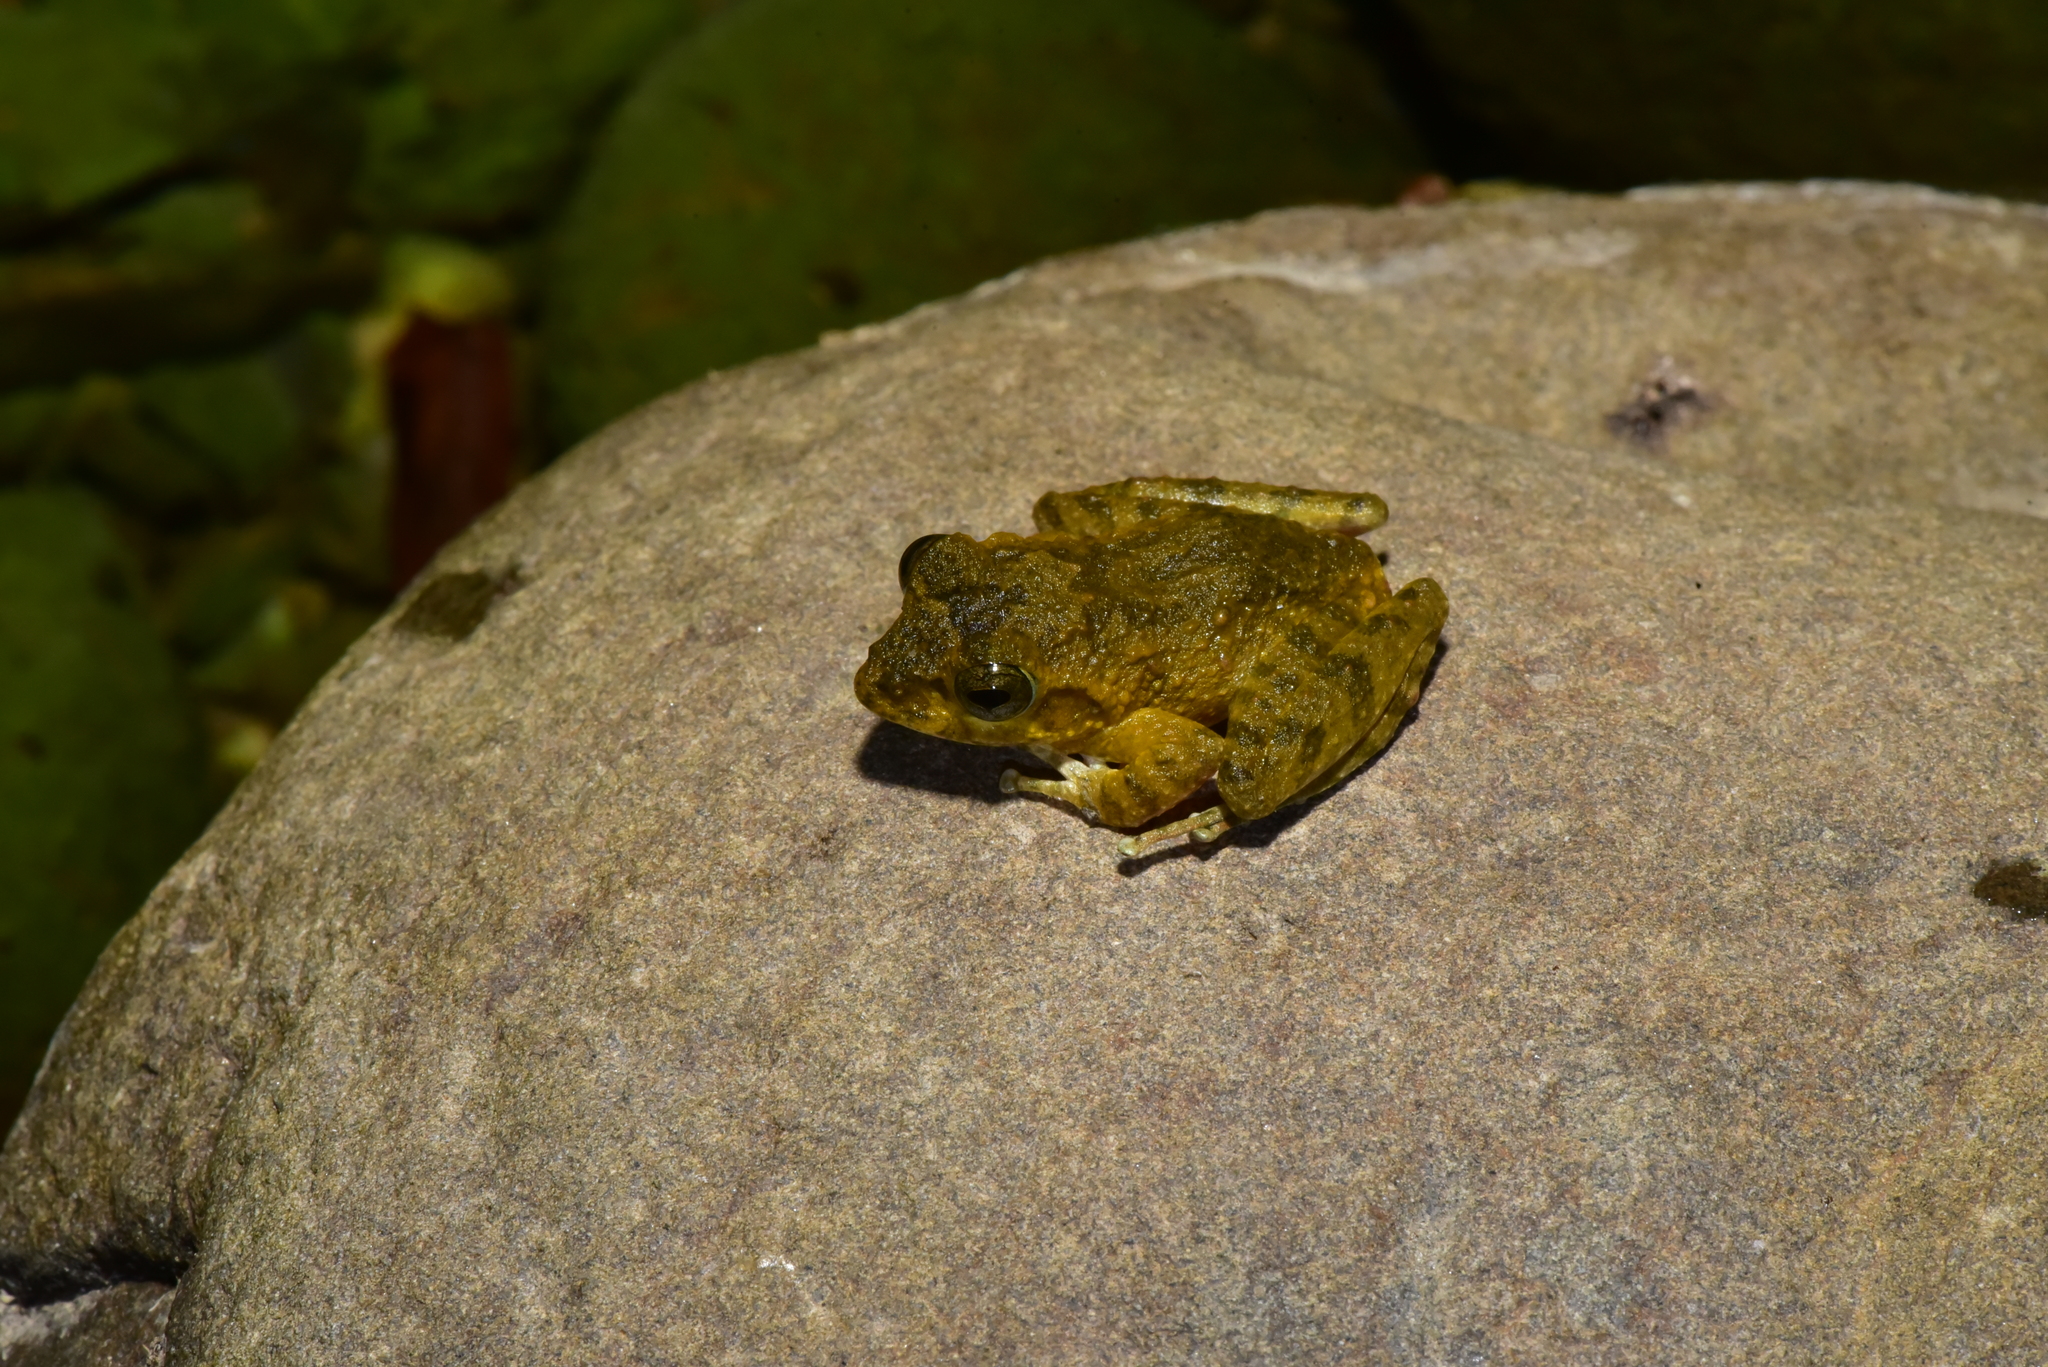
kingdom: Animalia
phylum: Chordata
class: Amphibia
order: Anura
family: Rhacophoridae
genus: Buergeria
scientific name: Buergeria otai
